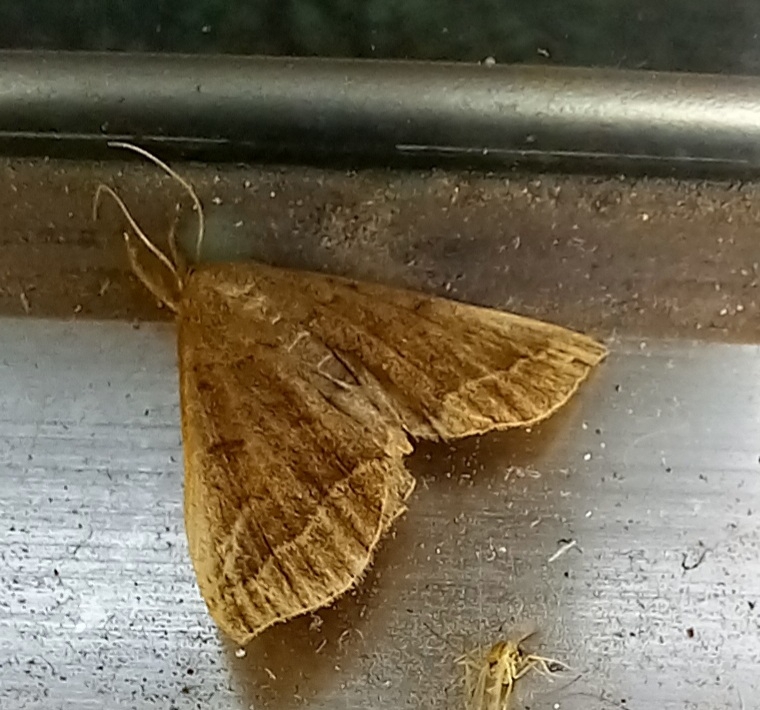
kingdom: Animalia
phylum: Arthropoda
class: Insecta
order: Lepidoptera
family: Erebidae
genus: Pechipogo
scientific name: Pechipogo plumigeralis
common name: Plumed fan-foot
